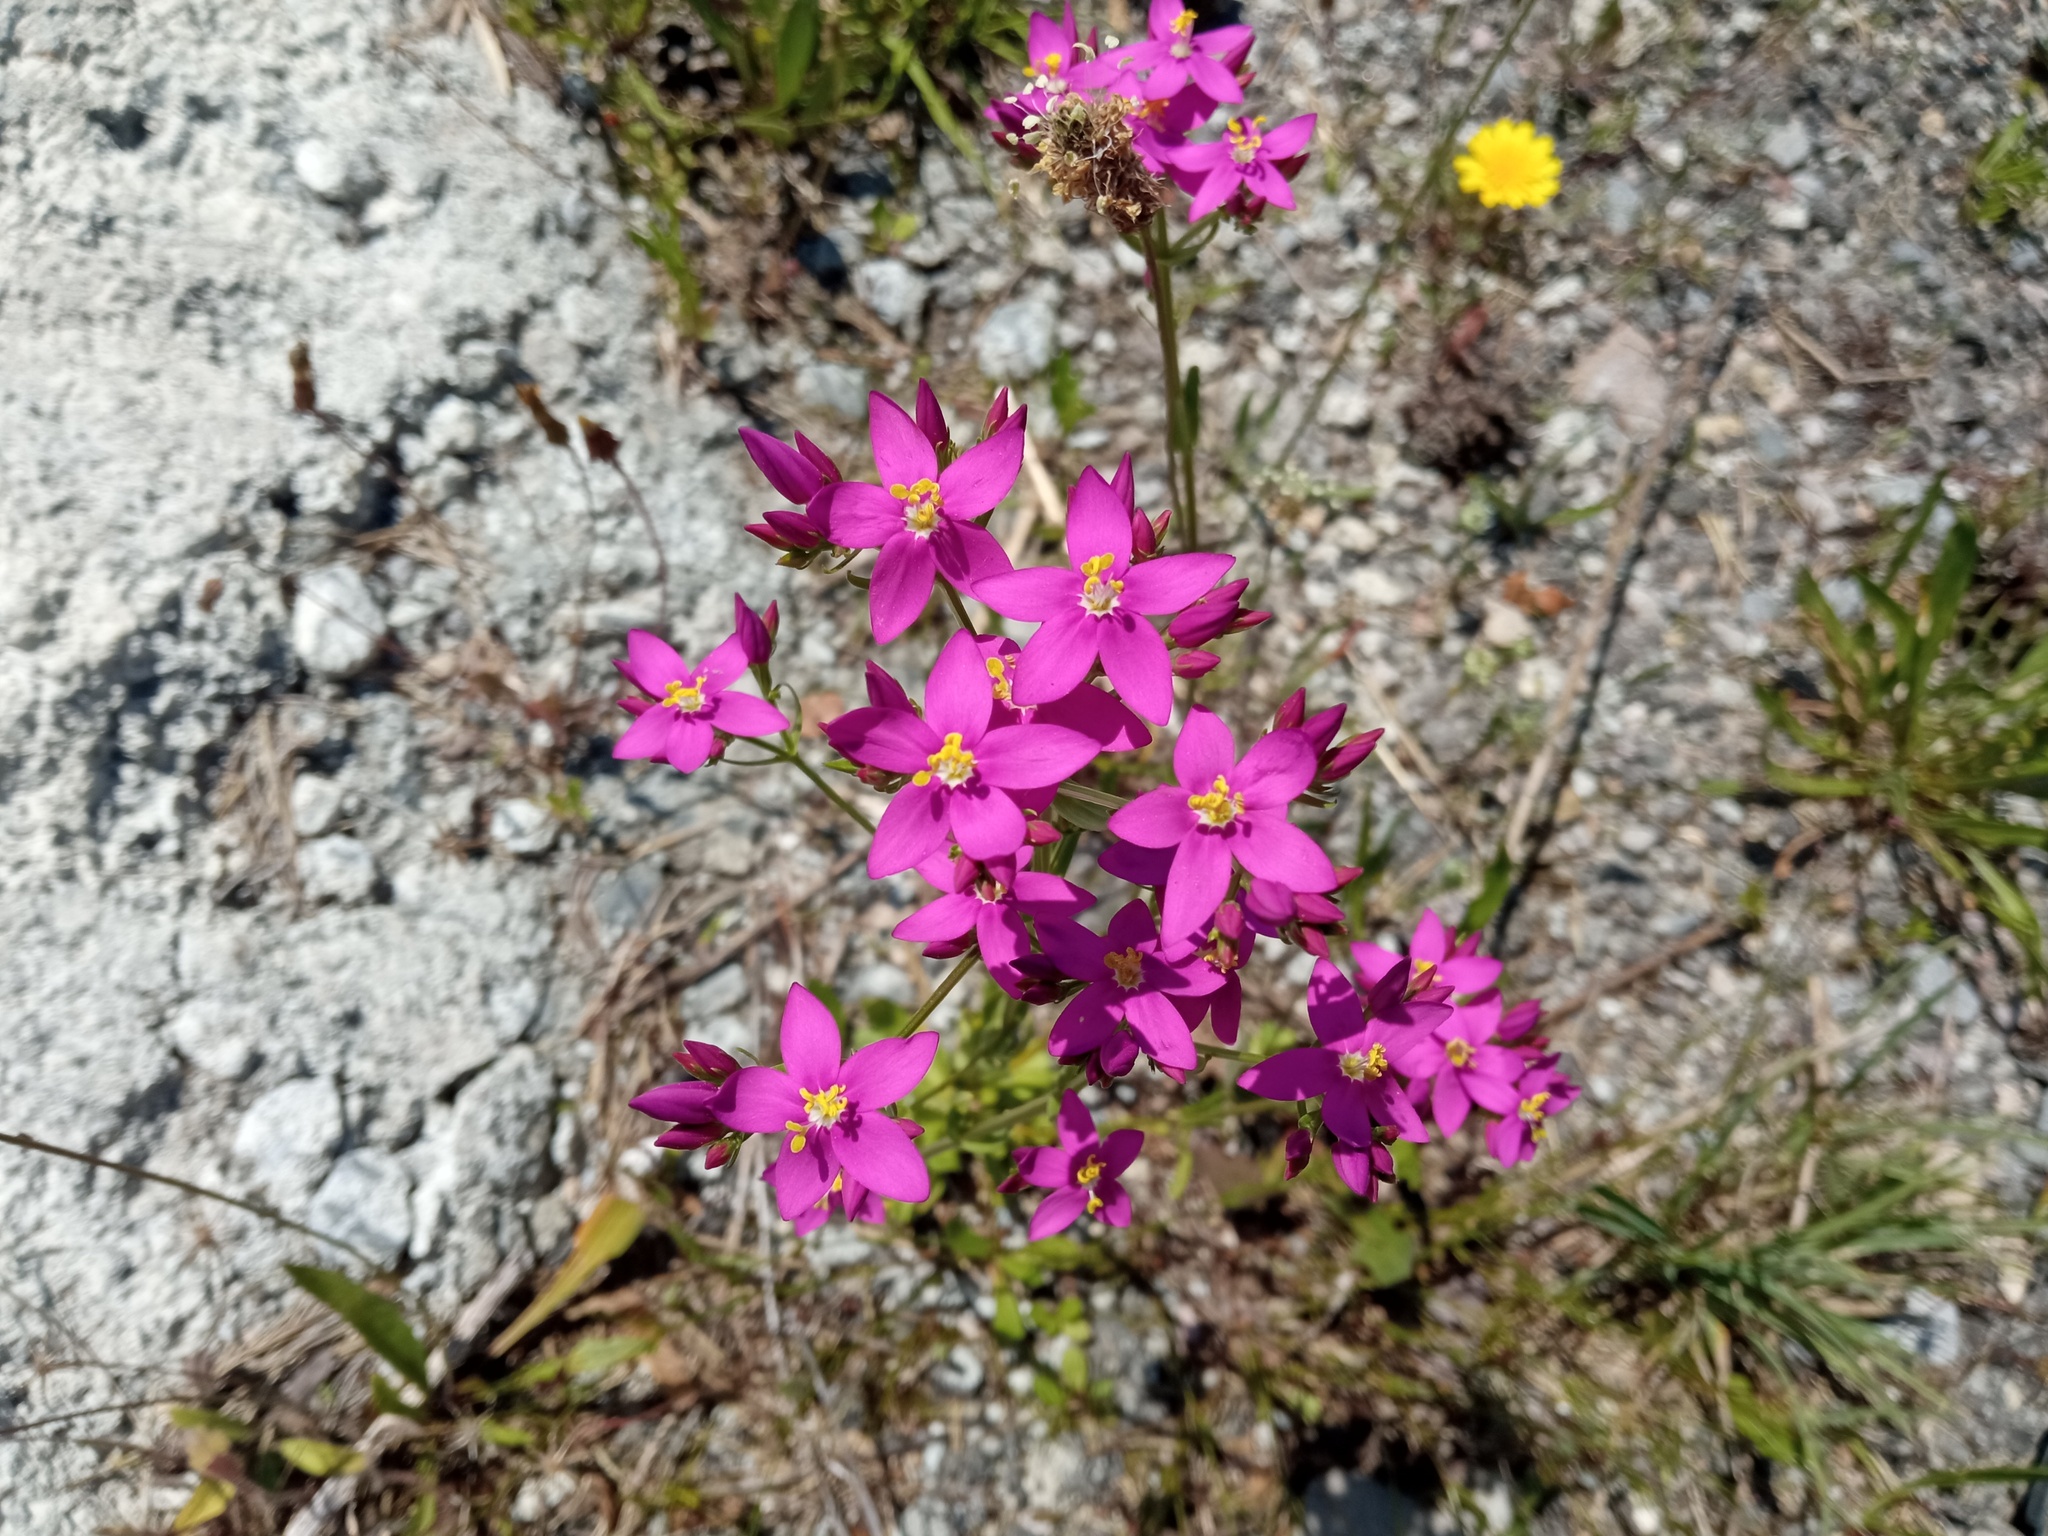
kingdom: Plantae
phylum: Tracheophyta
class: Magnoliopsida
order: Gentianales
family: Gentianaceae
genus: Centaurium
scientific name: Centaurium erythraea
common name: Common centaury
